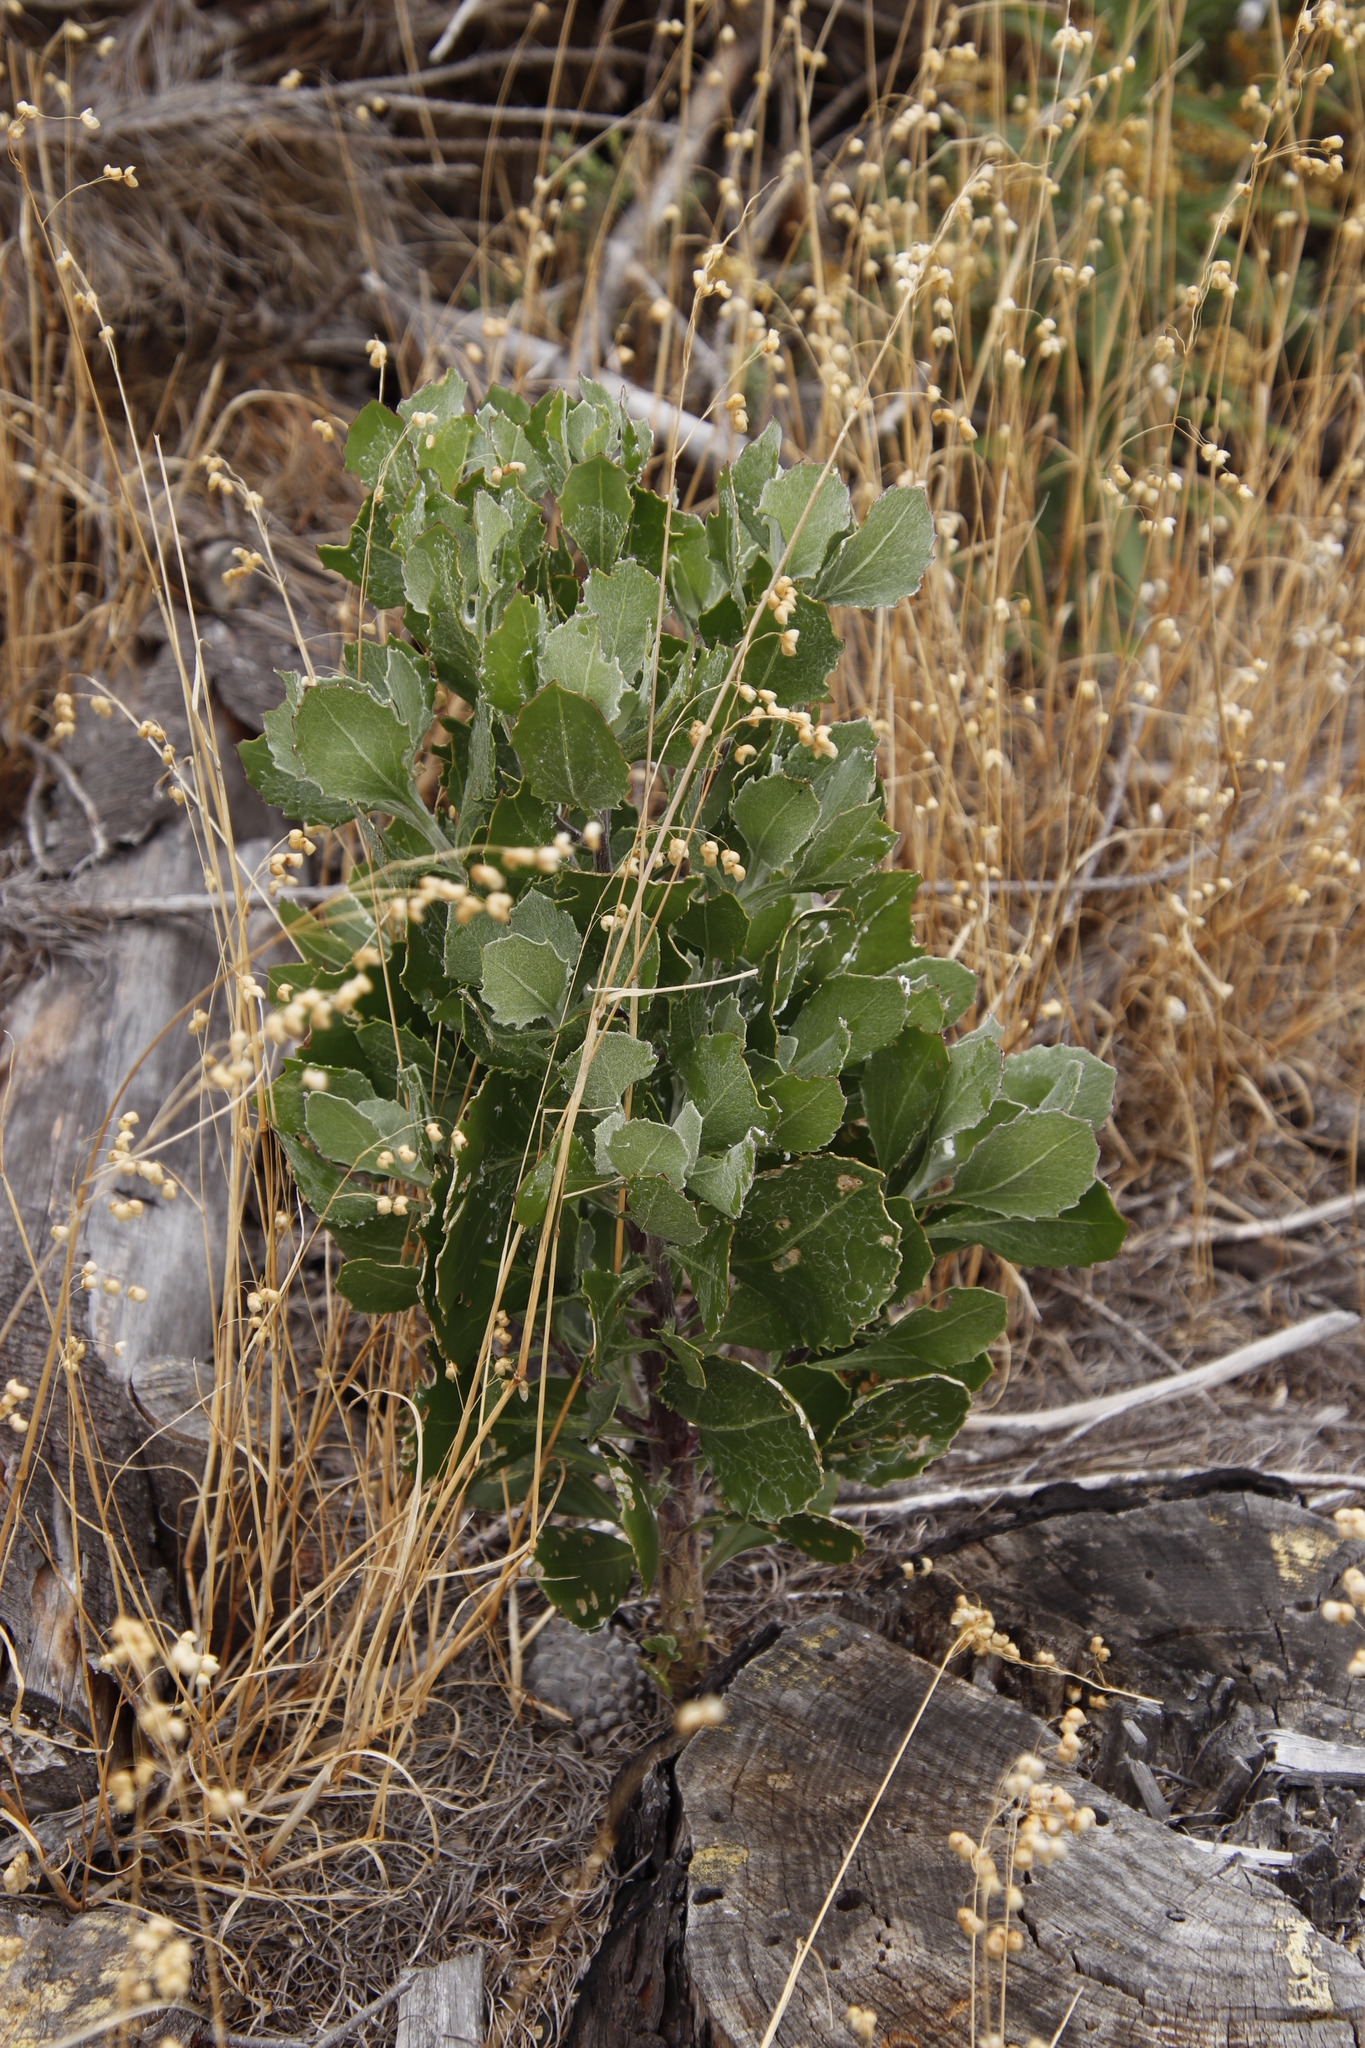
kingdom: Plantae
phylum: Tracheophyta
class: Magnoliopsida
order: Asterales
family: Asteraceae
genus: Osteospermum
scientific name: Osteospermum moniliferum
